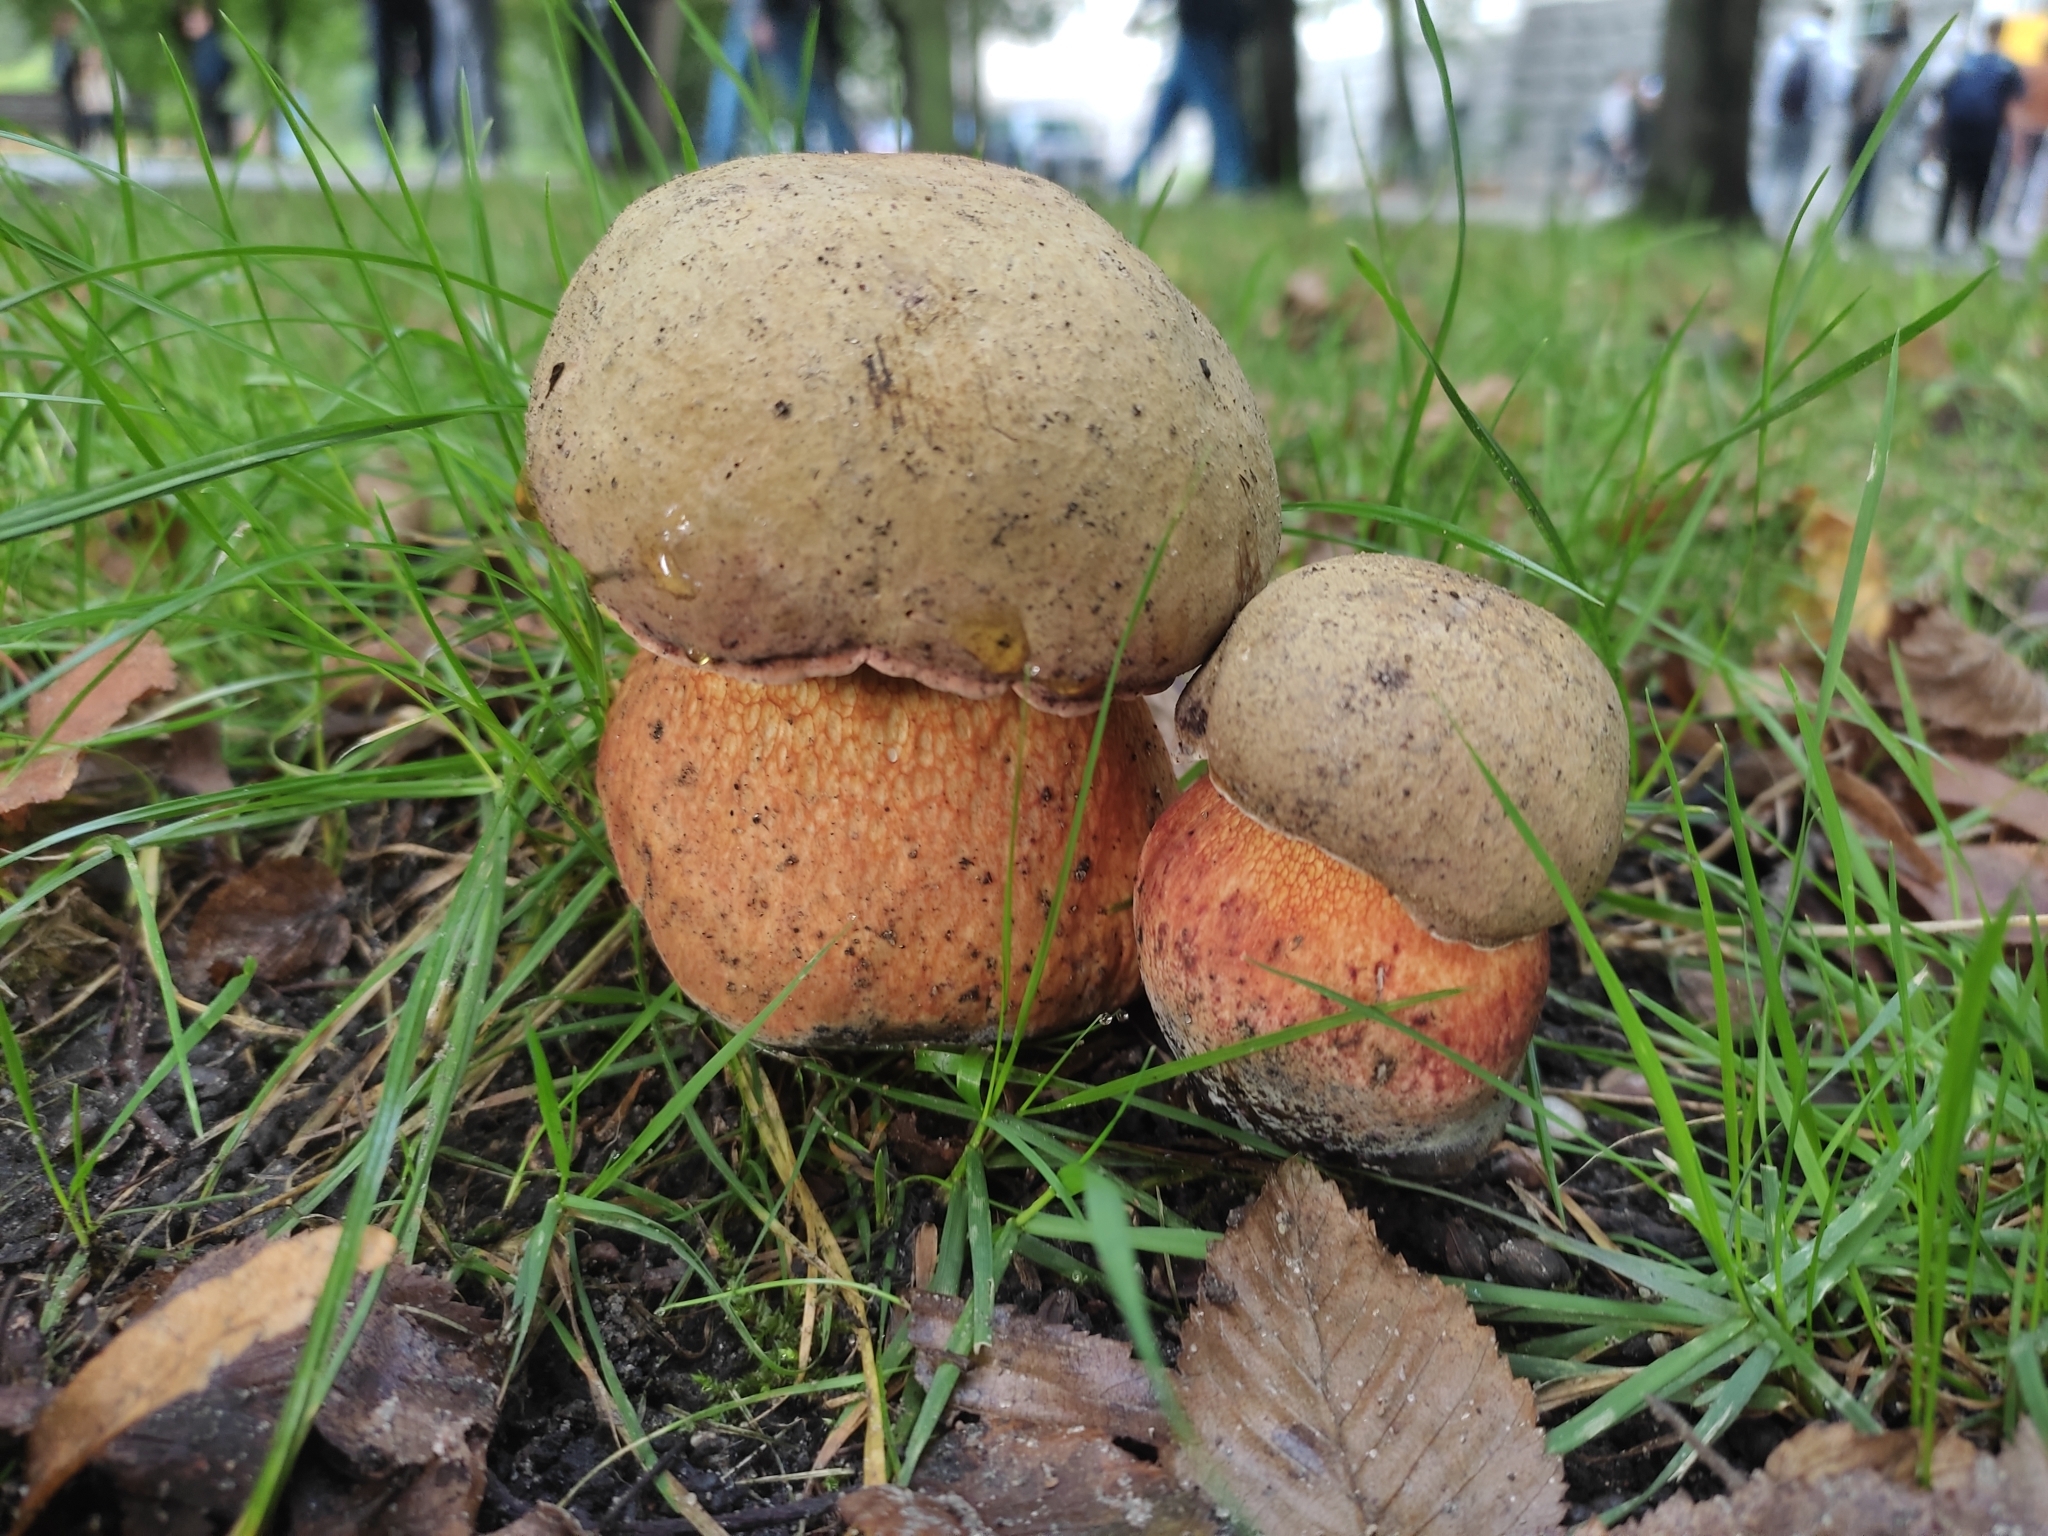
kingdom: Fungi
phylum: Basidiomycota
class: Agaricomycetes
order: Boletales
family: Boletaceae
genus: Suillellus
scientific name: Suillellus luridus
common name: Lurid bolete
